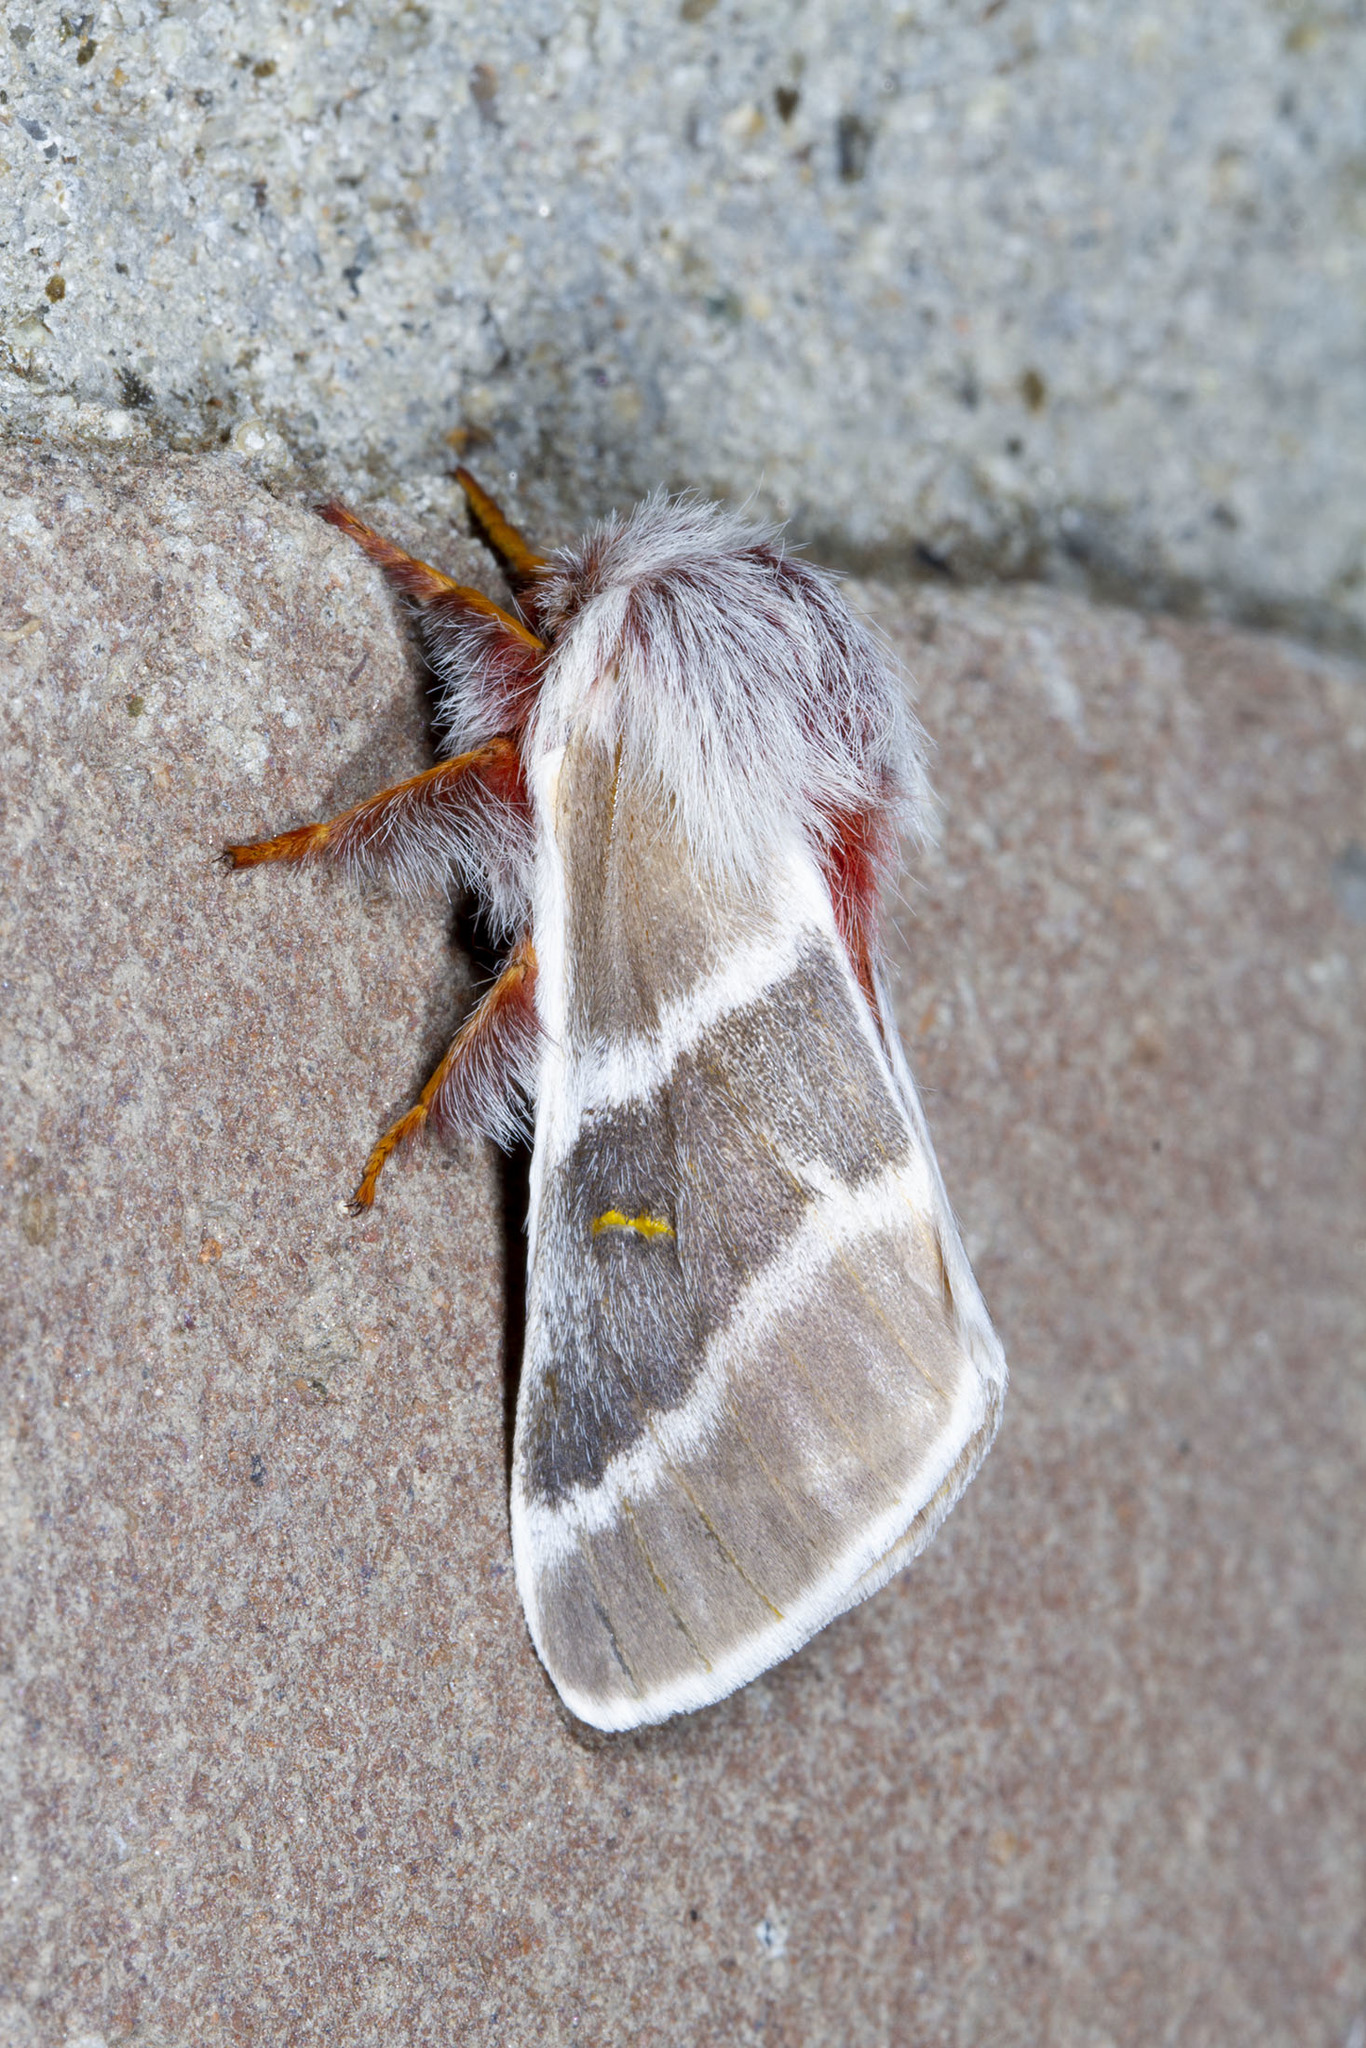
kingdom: Animalia
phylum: Arthropoda
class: Insecta
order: Lepidoptera
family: Saturniidae
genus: Hemileuca
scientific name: Hemileuca sororius
